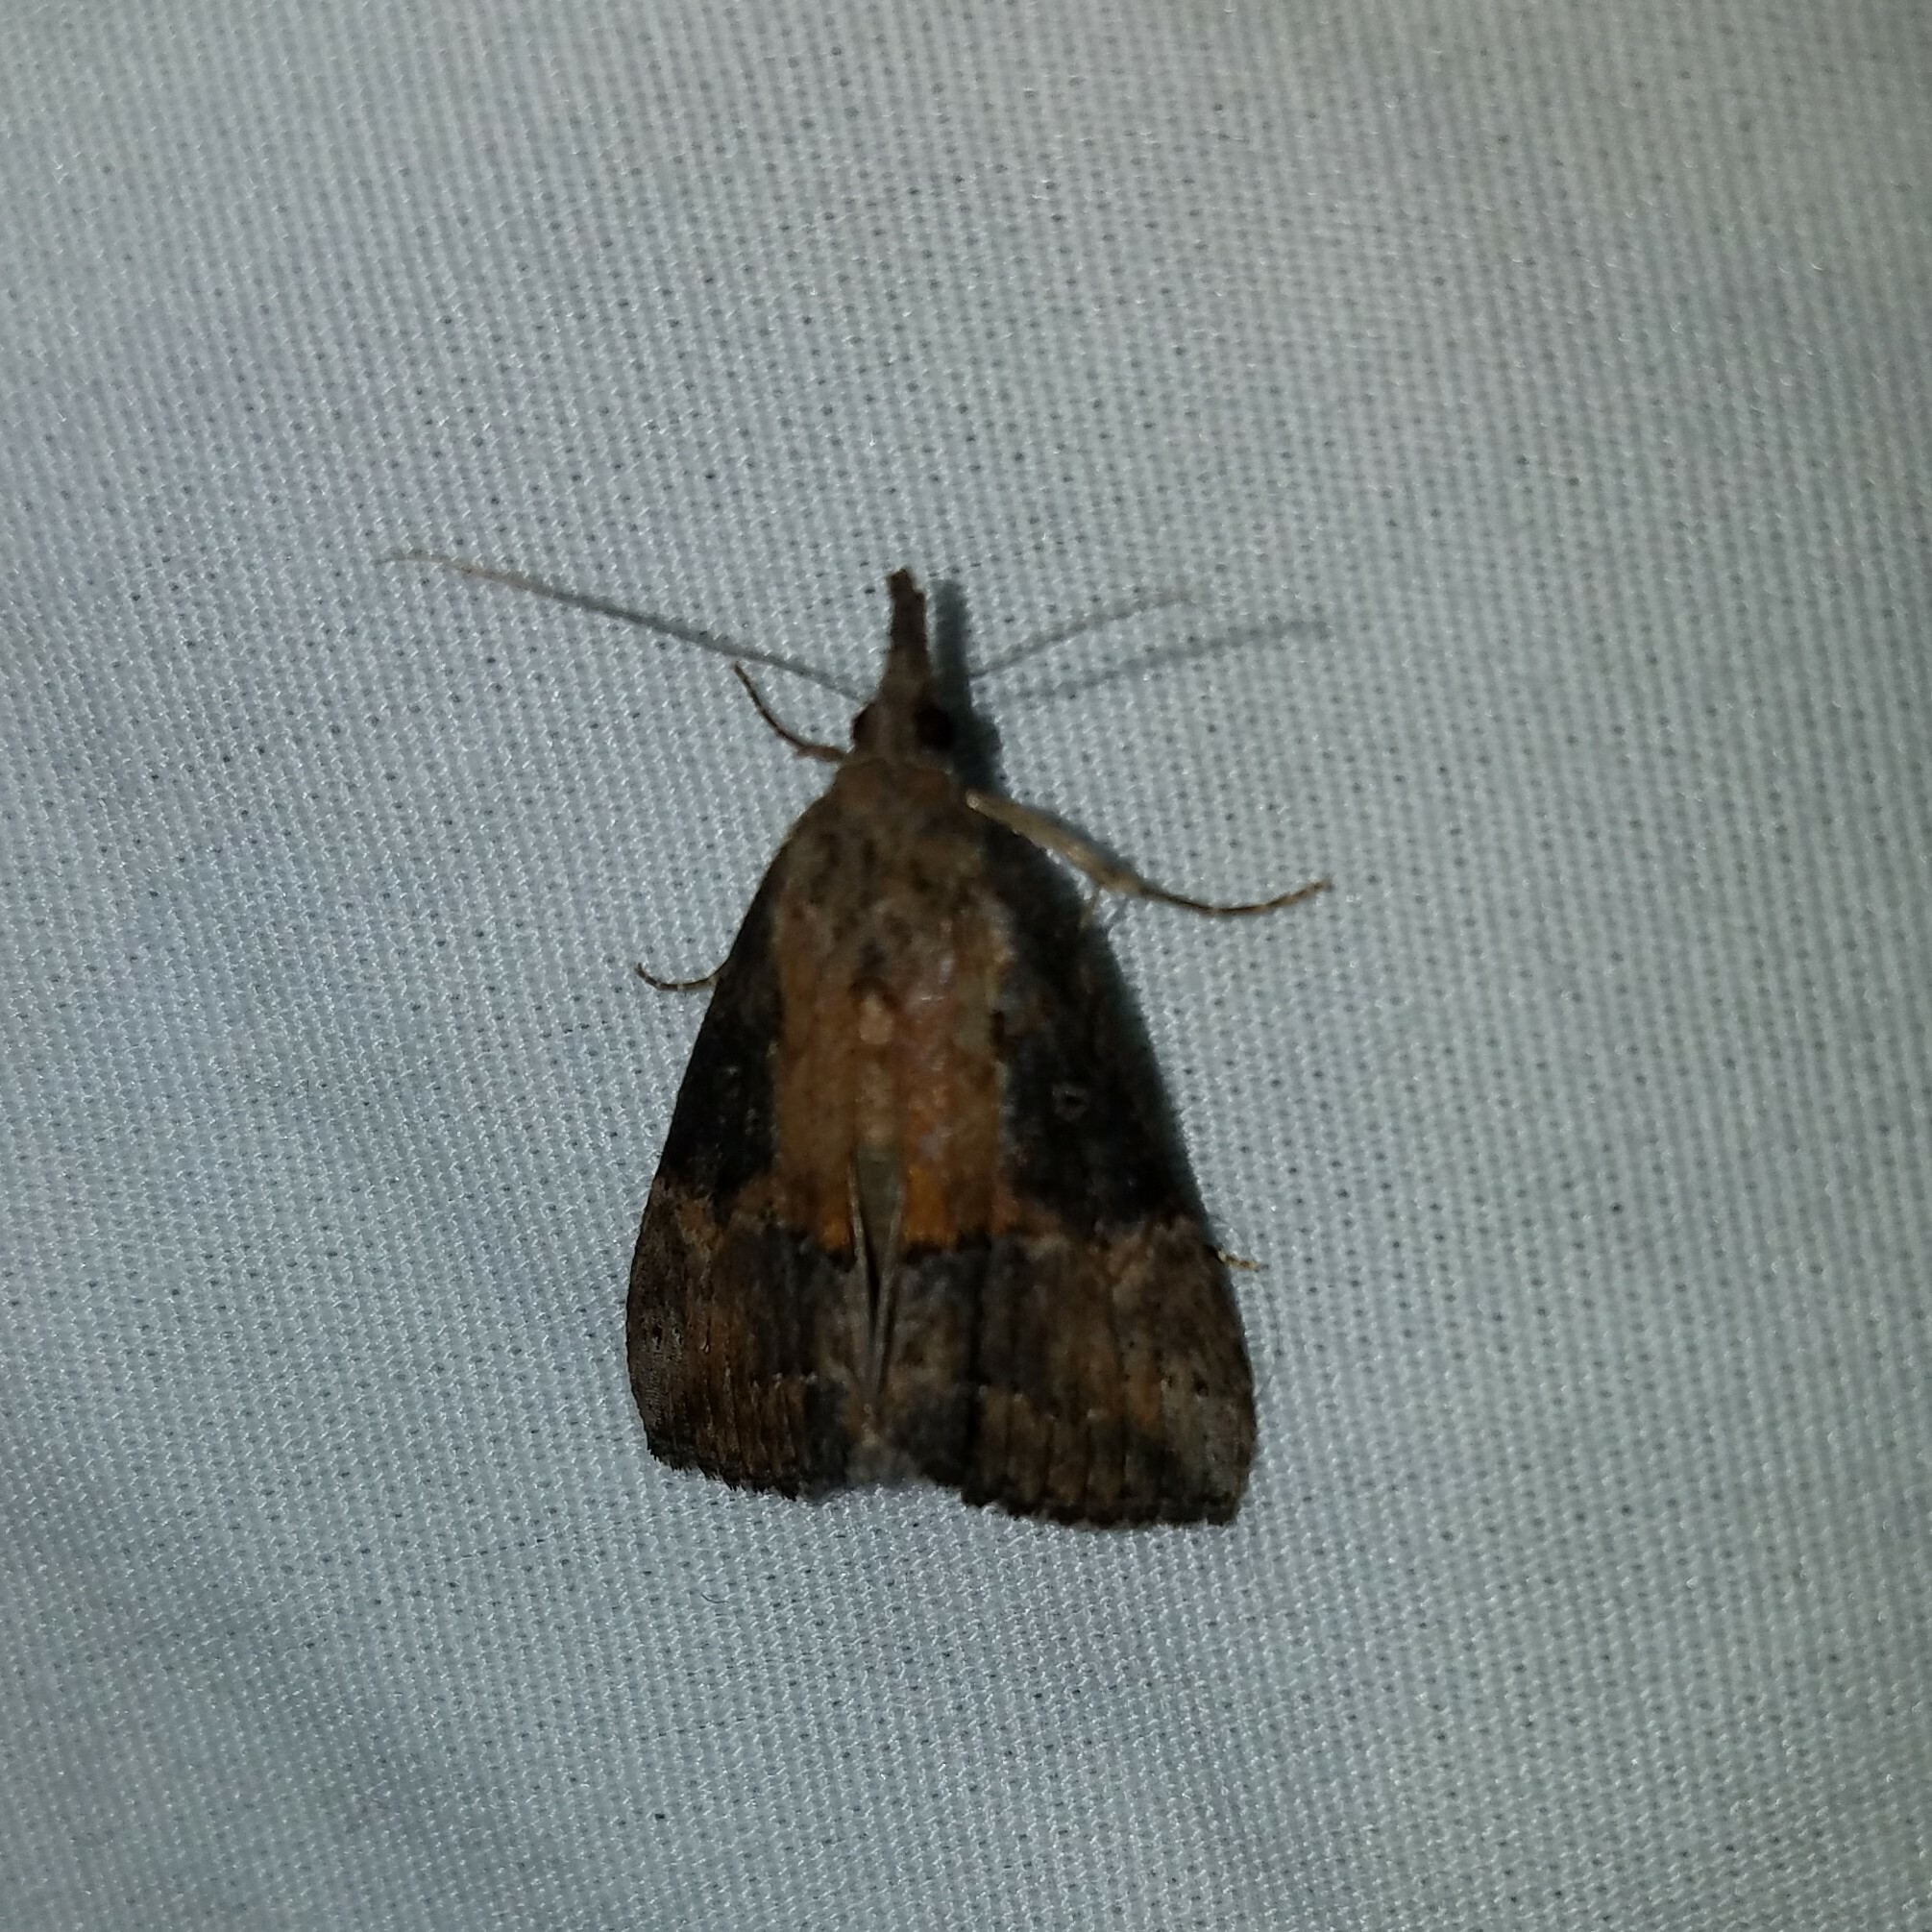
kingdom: Animalia
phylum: Arthropoda
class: Insecta
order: Lepidoptera
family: Erebidae
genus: Hypena
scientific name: Hypena scabra
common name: Green cloverworm
